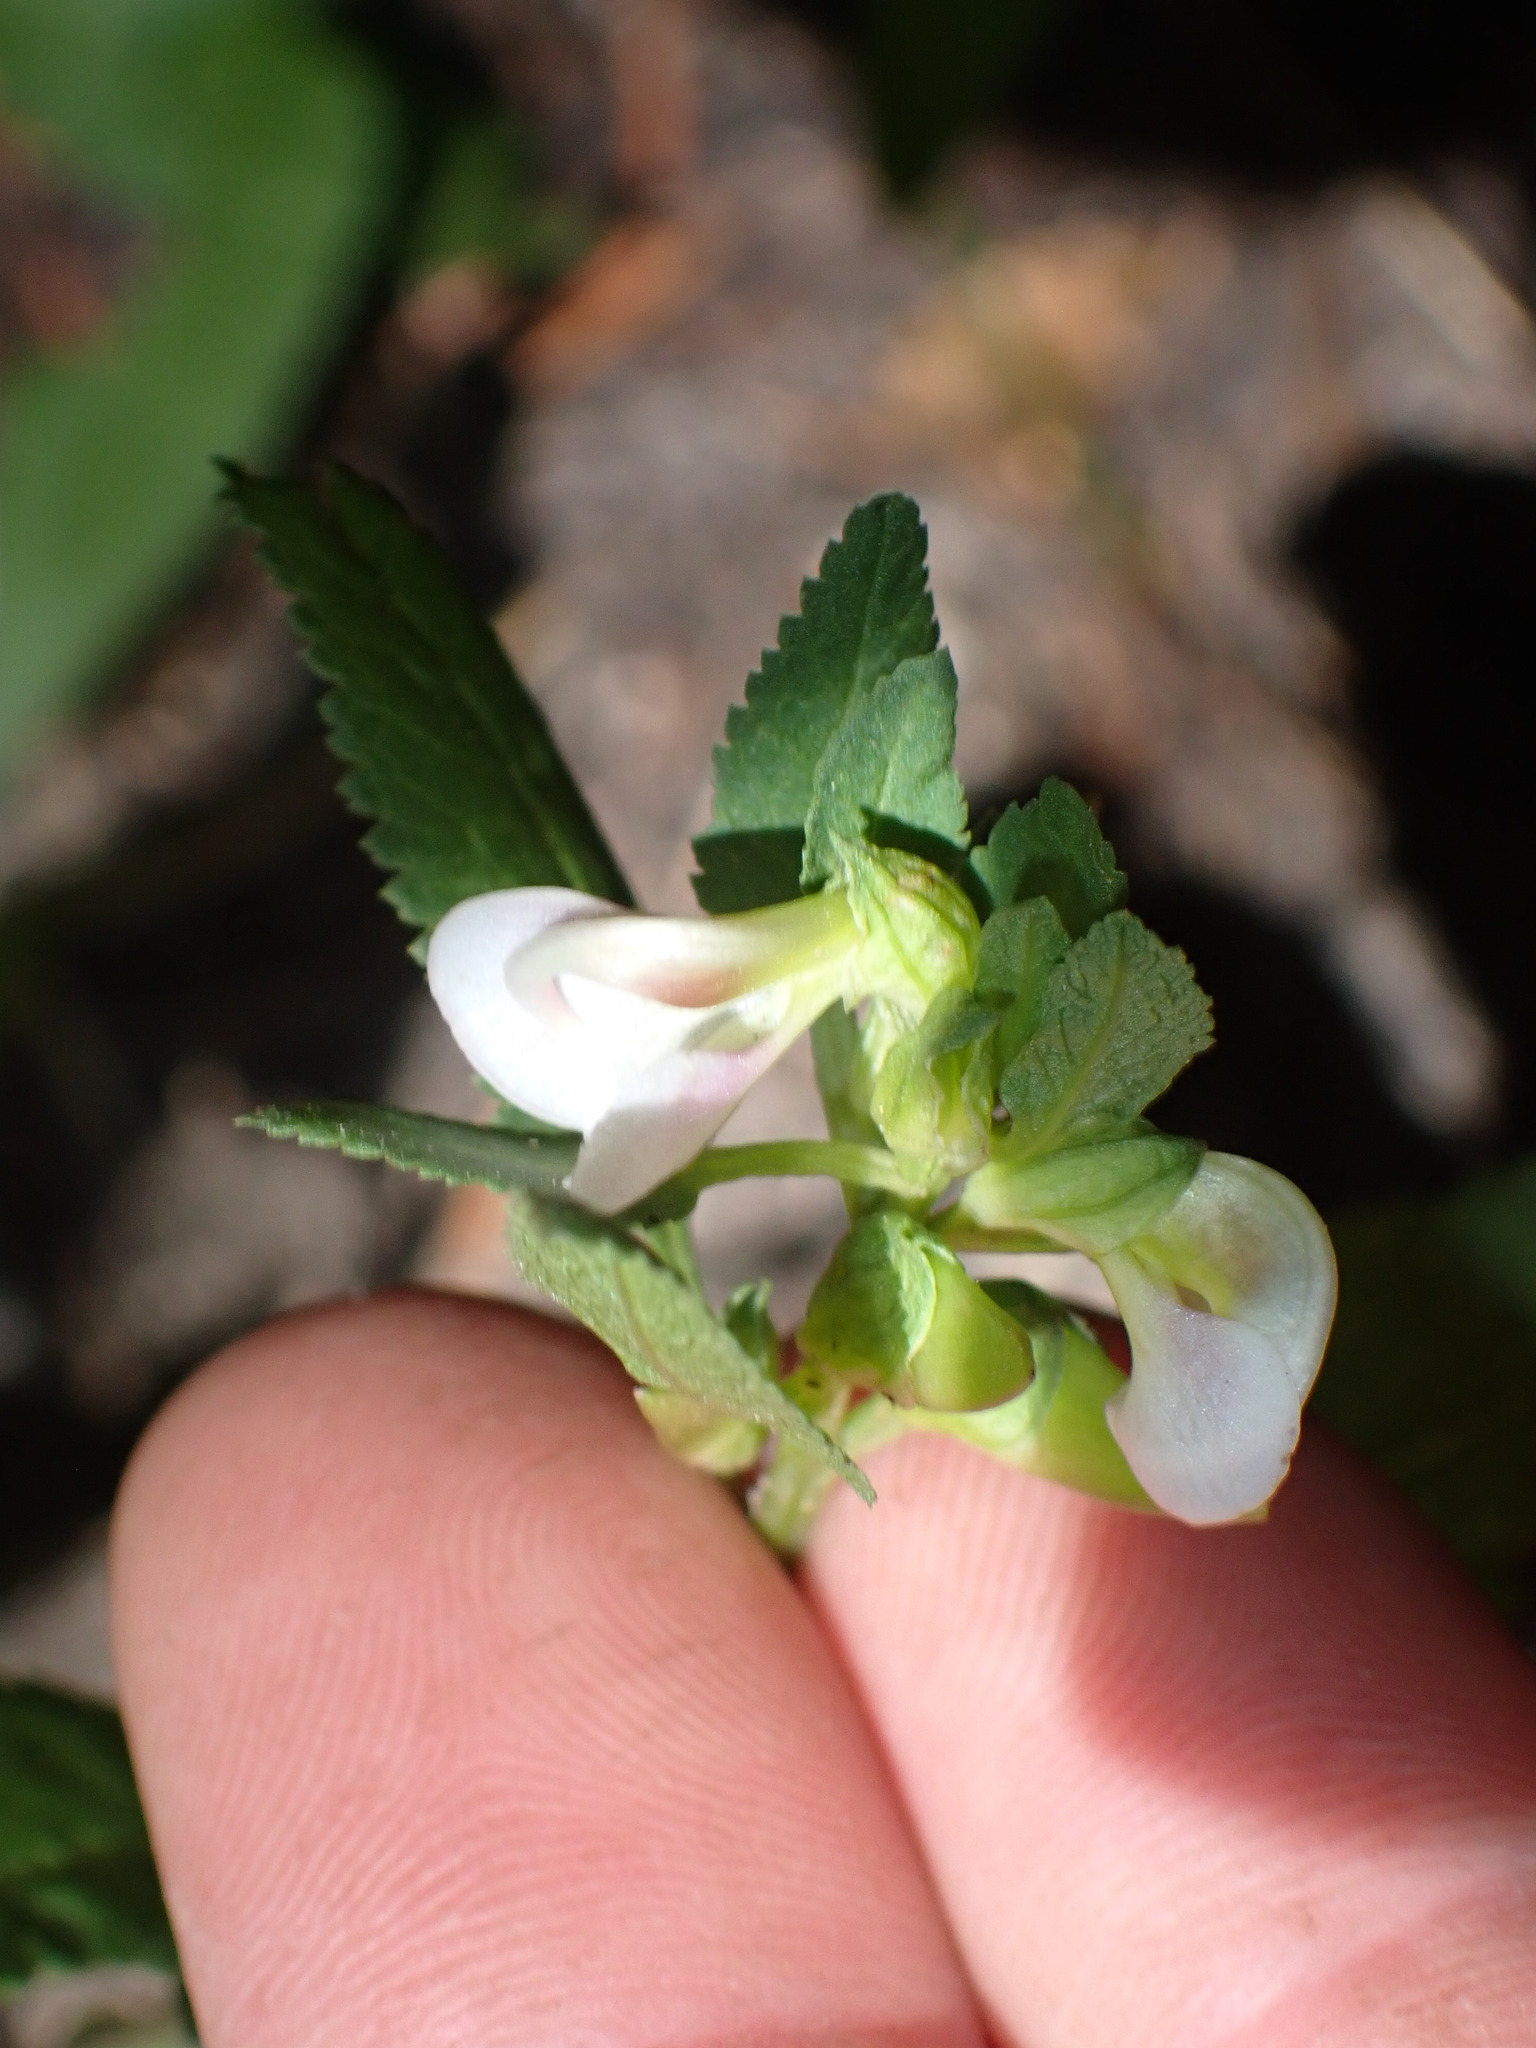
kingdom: Plantae
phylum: Tracheophyta
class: Magnoliopsida
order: Lamiales
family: Orobanchaceae
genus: Pedicularis
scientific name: Pedicularis racemosa
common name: Leafy lousewort
